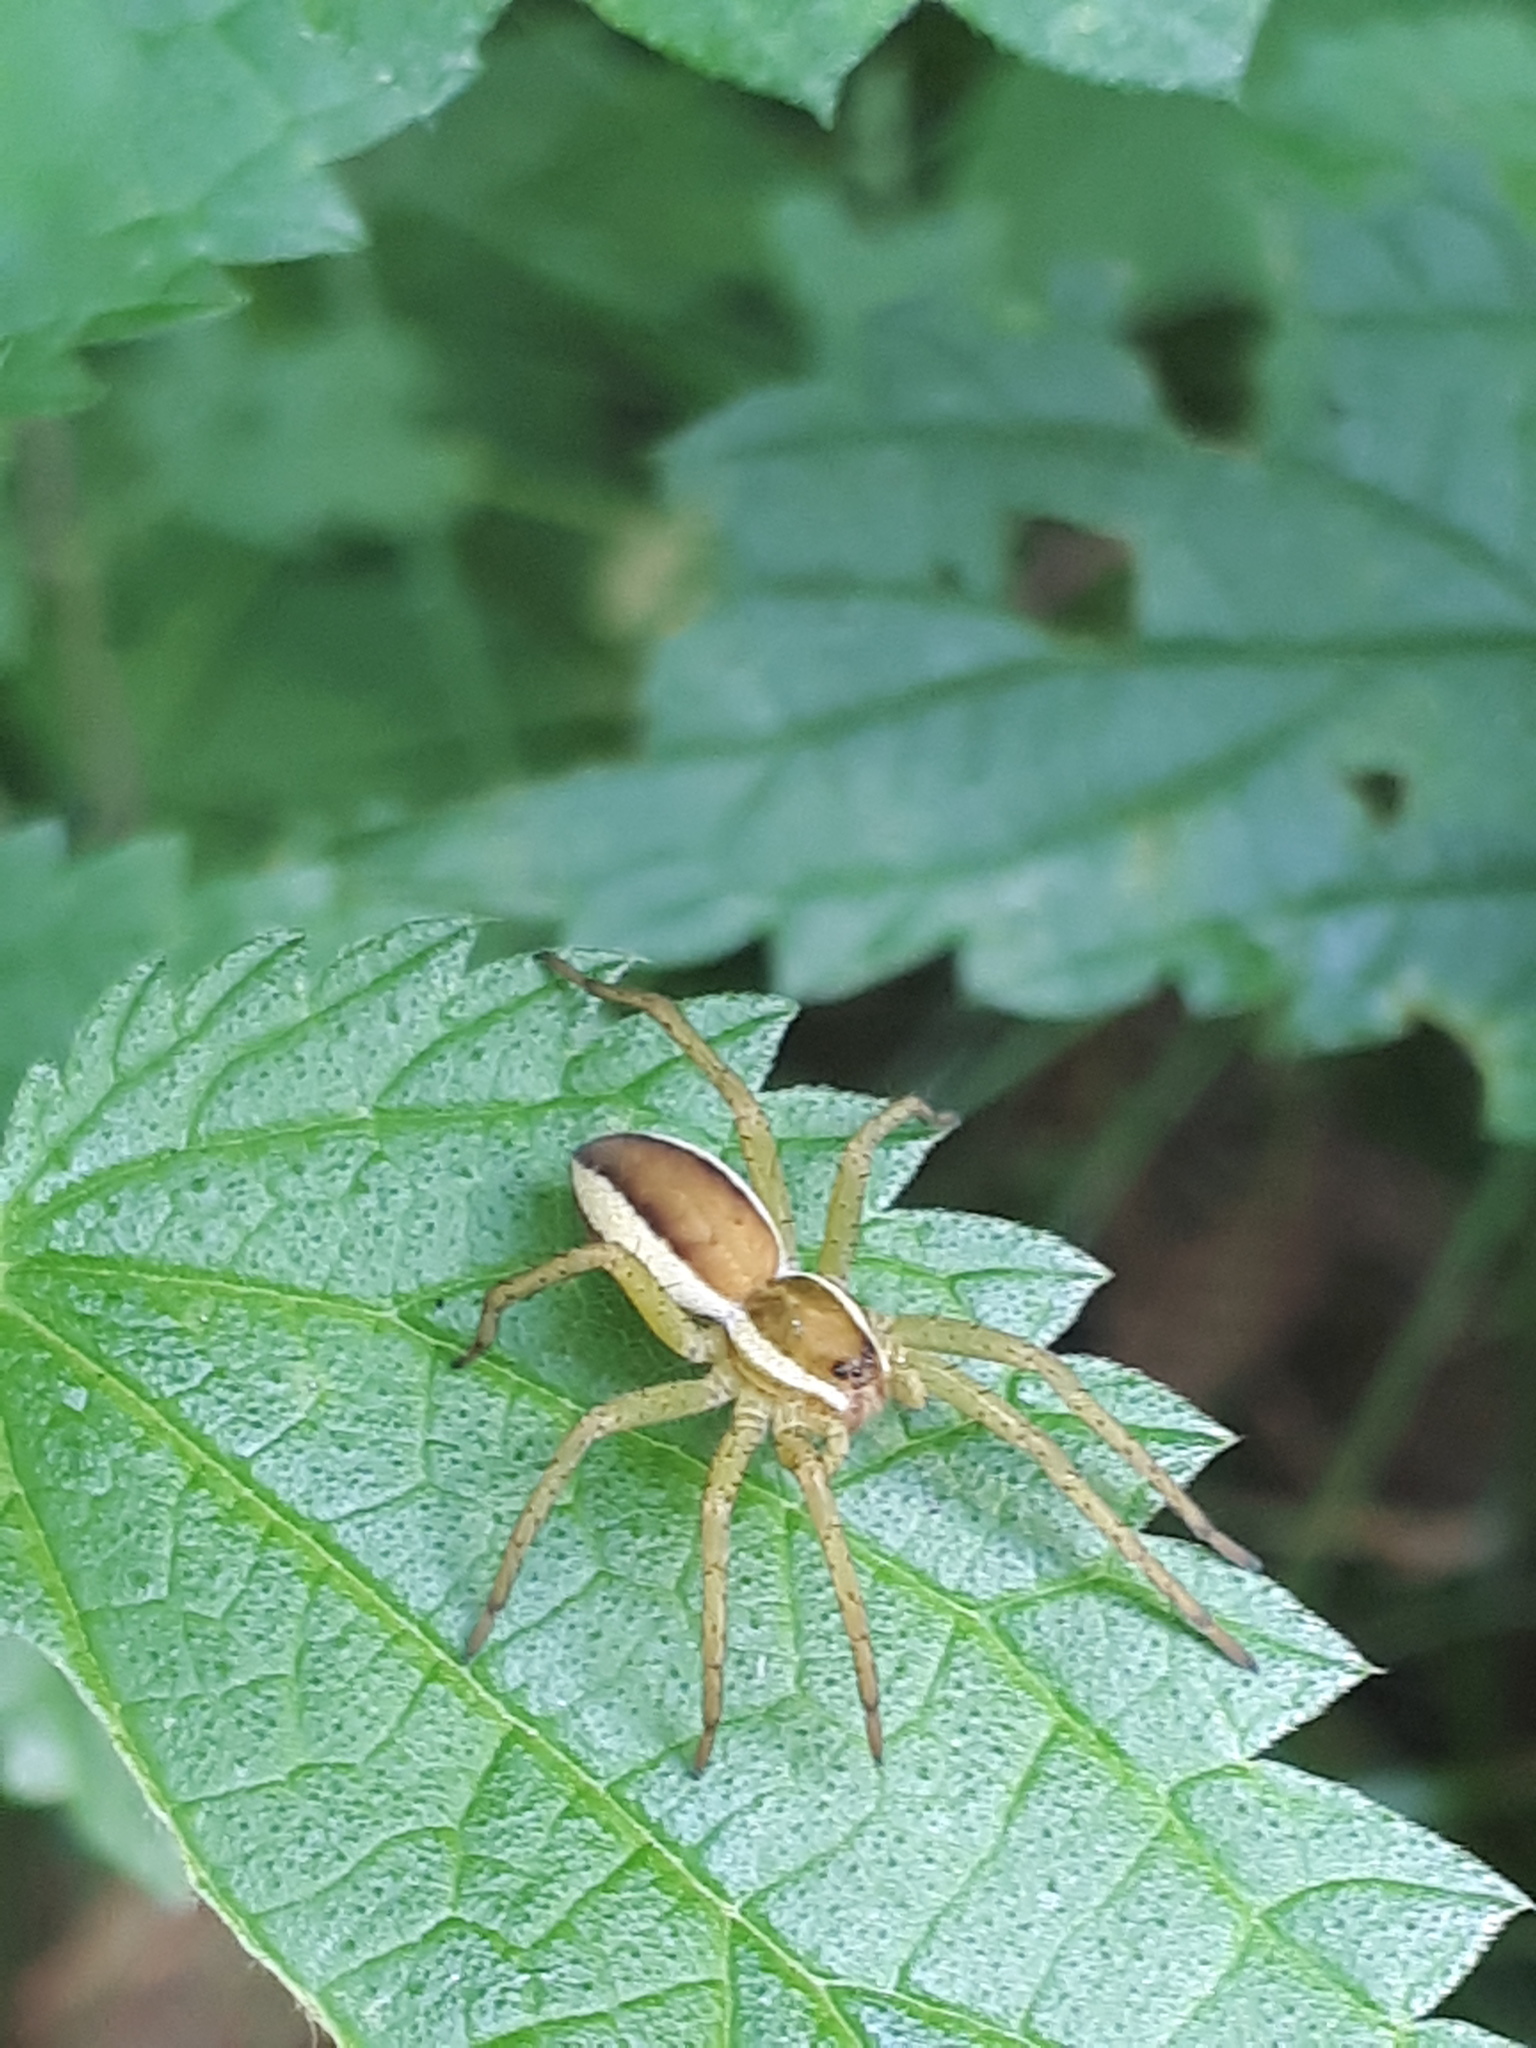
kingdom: Animalia
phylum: Arthropoda
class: Arachnida
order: Araneae
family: Pisauridae
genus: Dolomedes
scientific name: Dolomedes fimbriatus
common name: Raft spider
